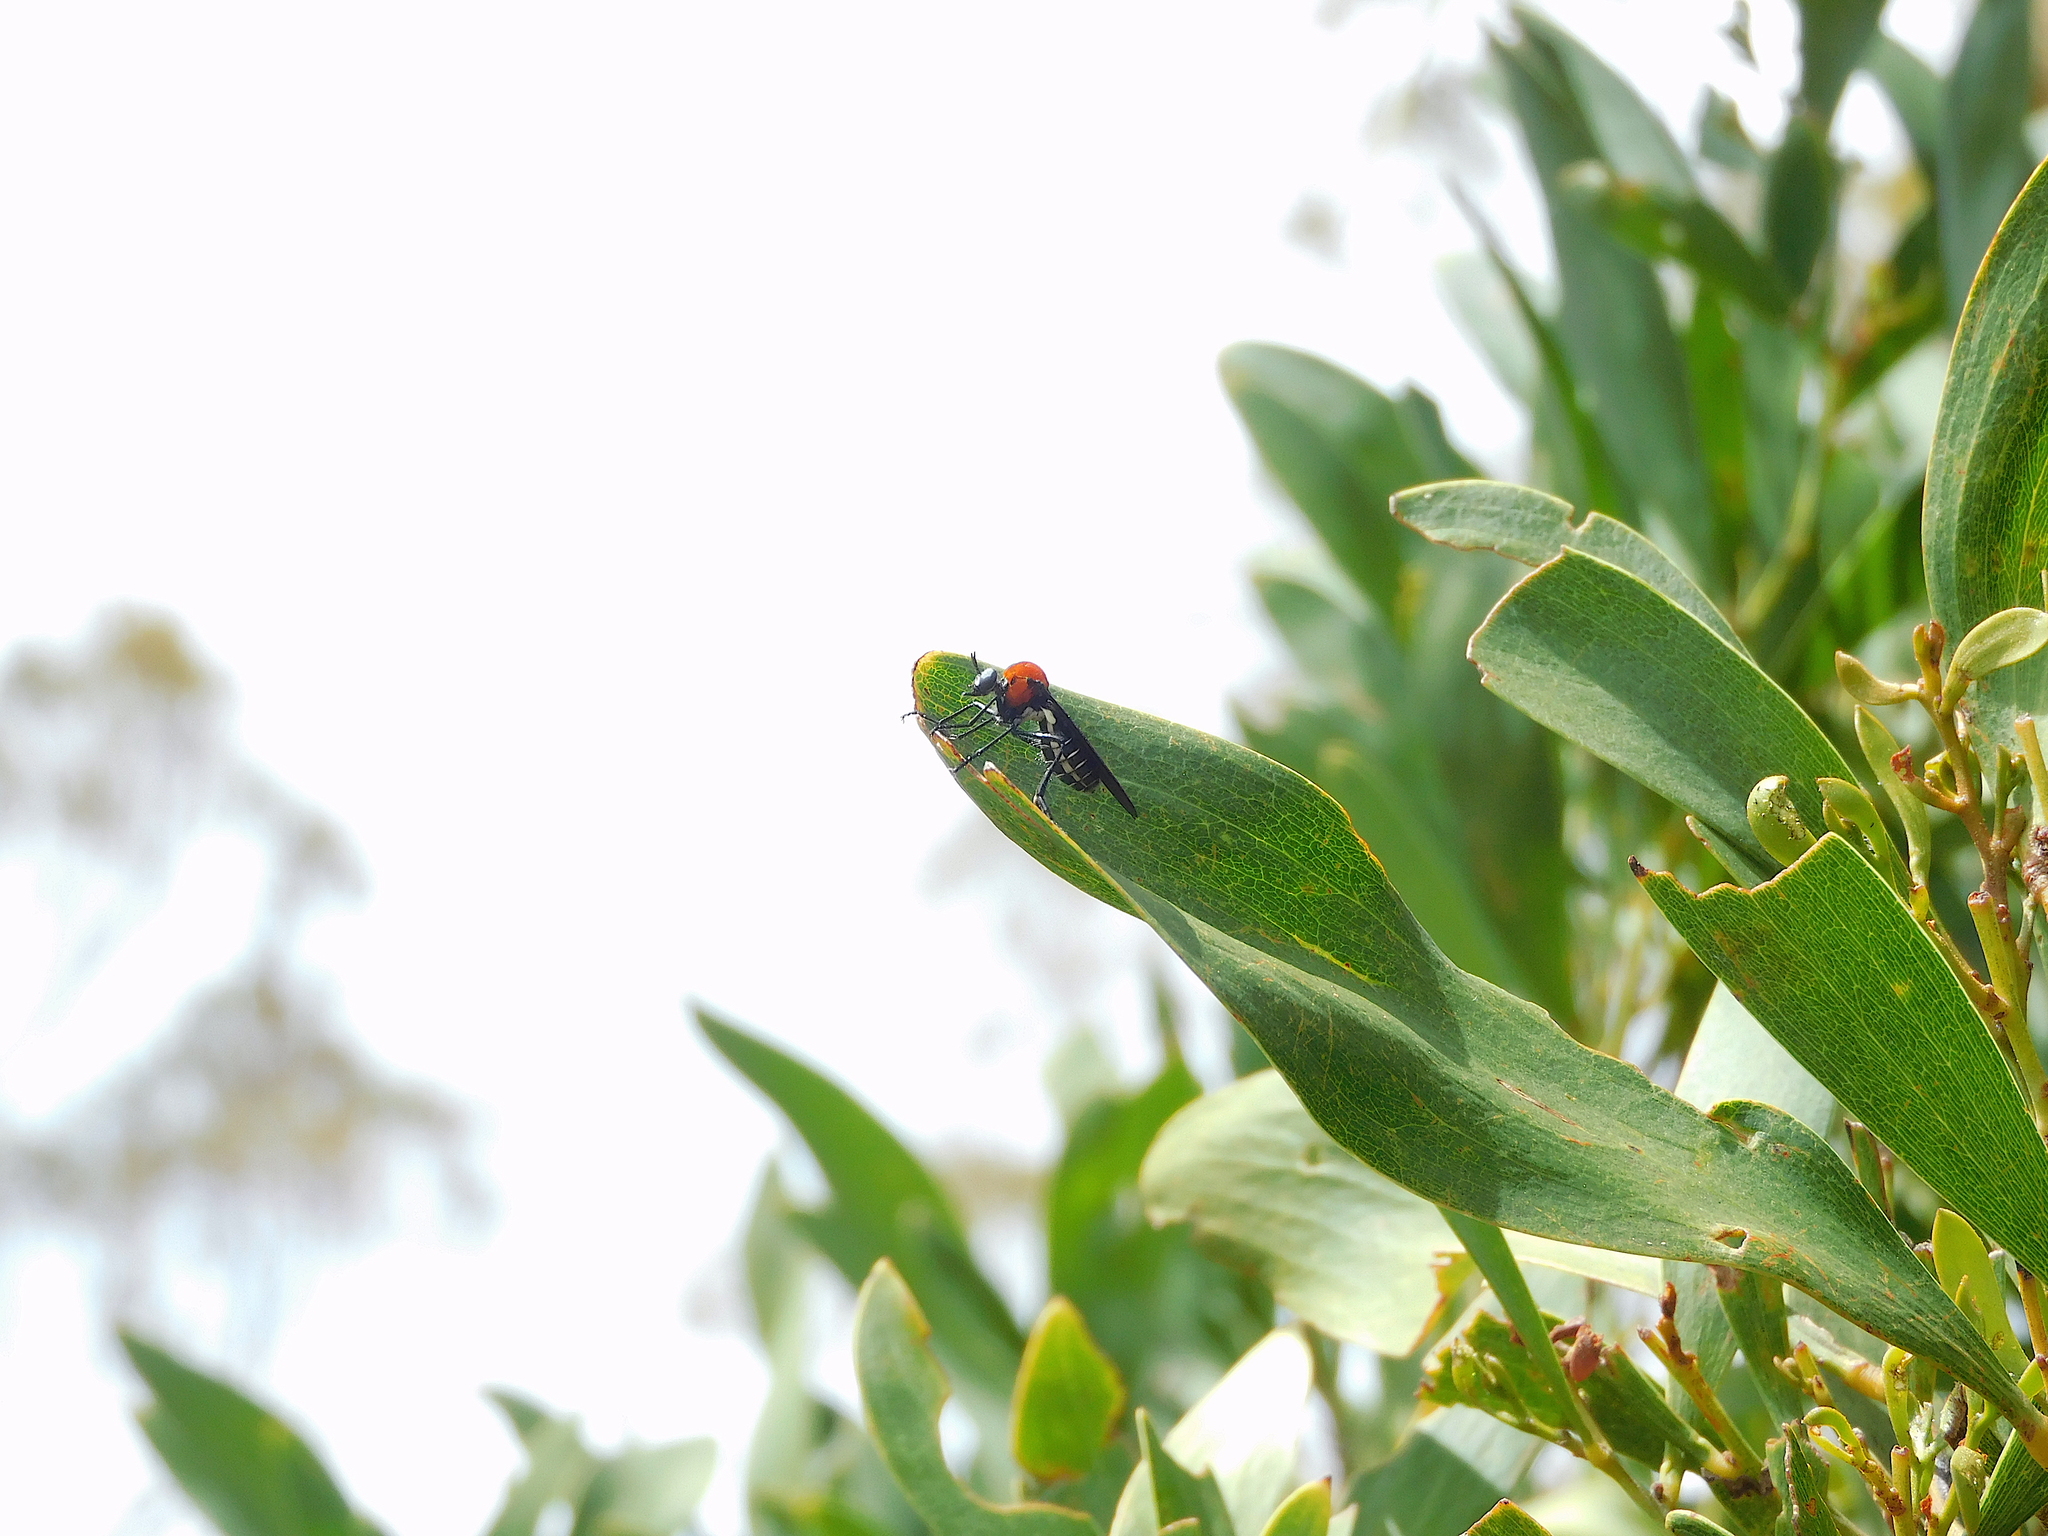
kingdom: Animalia
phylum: Arthropoda
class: Insecta
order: Diptera
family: Asilidae
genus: Cabasa
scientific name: Cabasa pulchella
